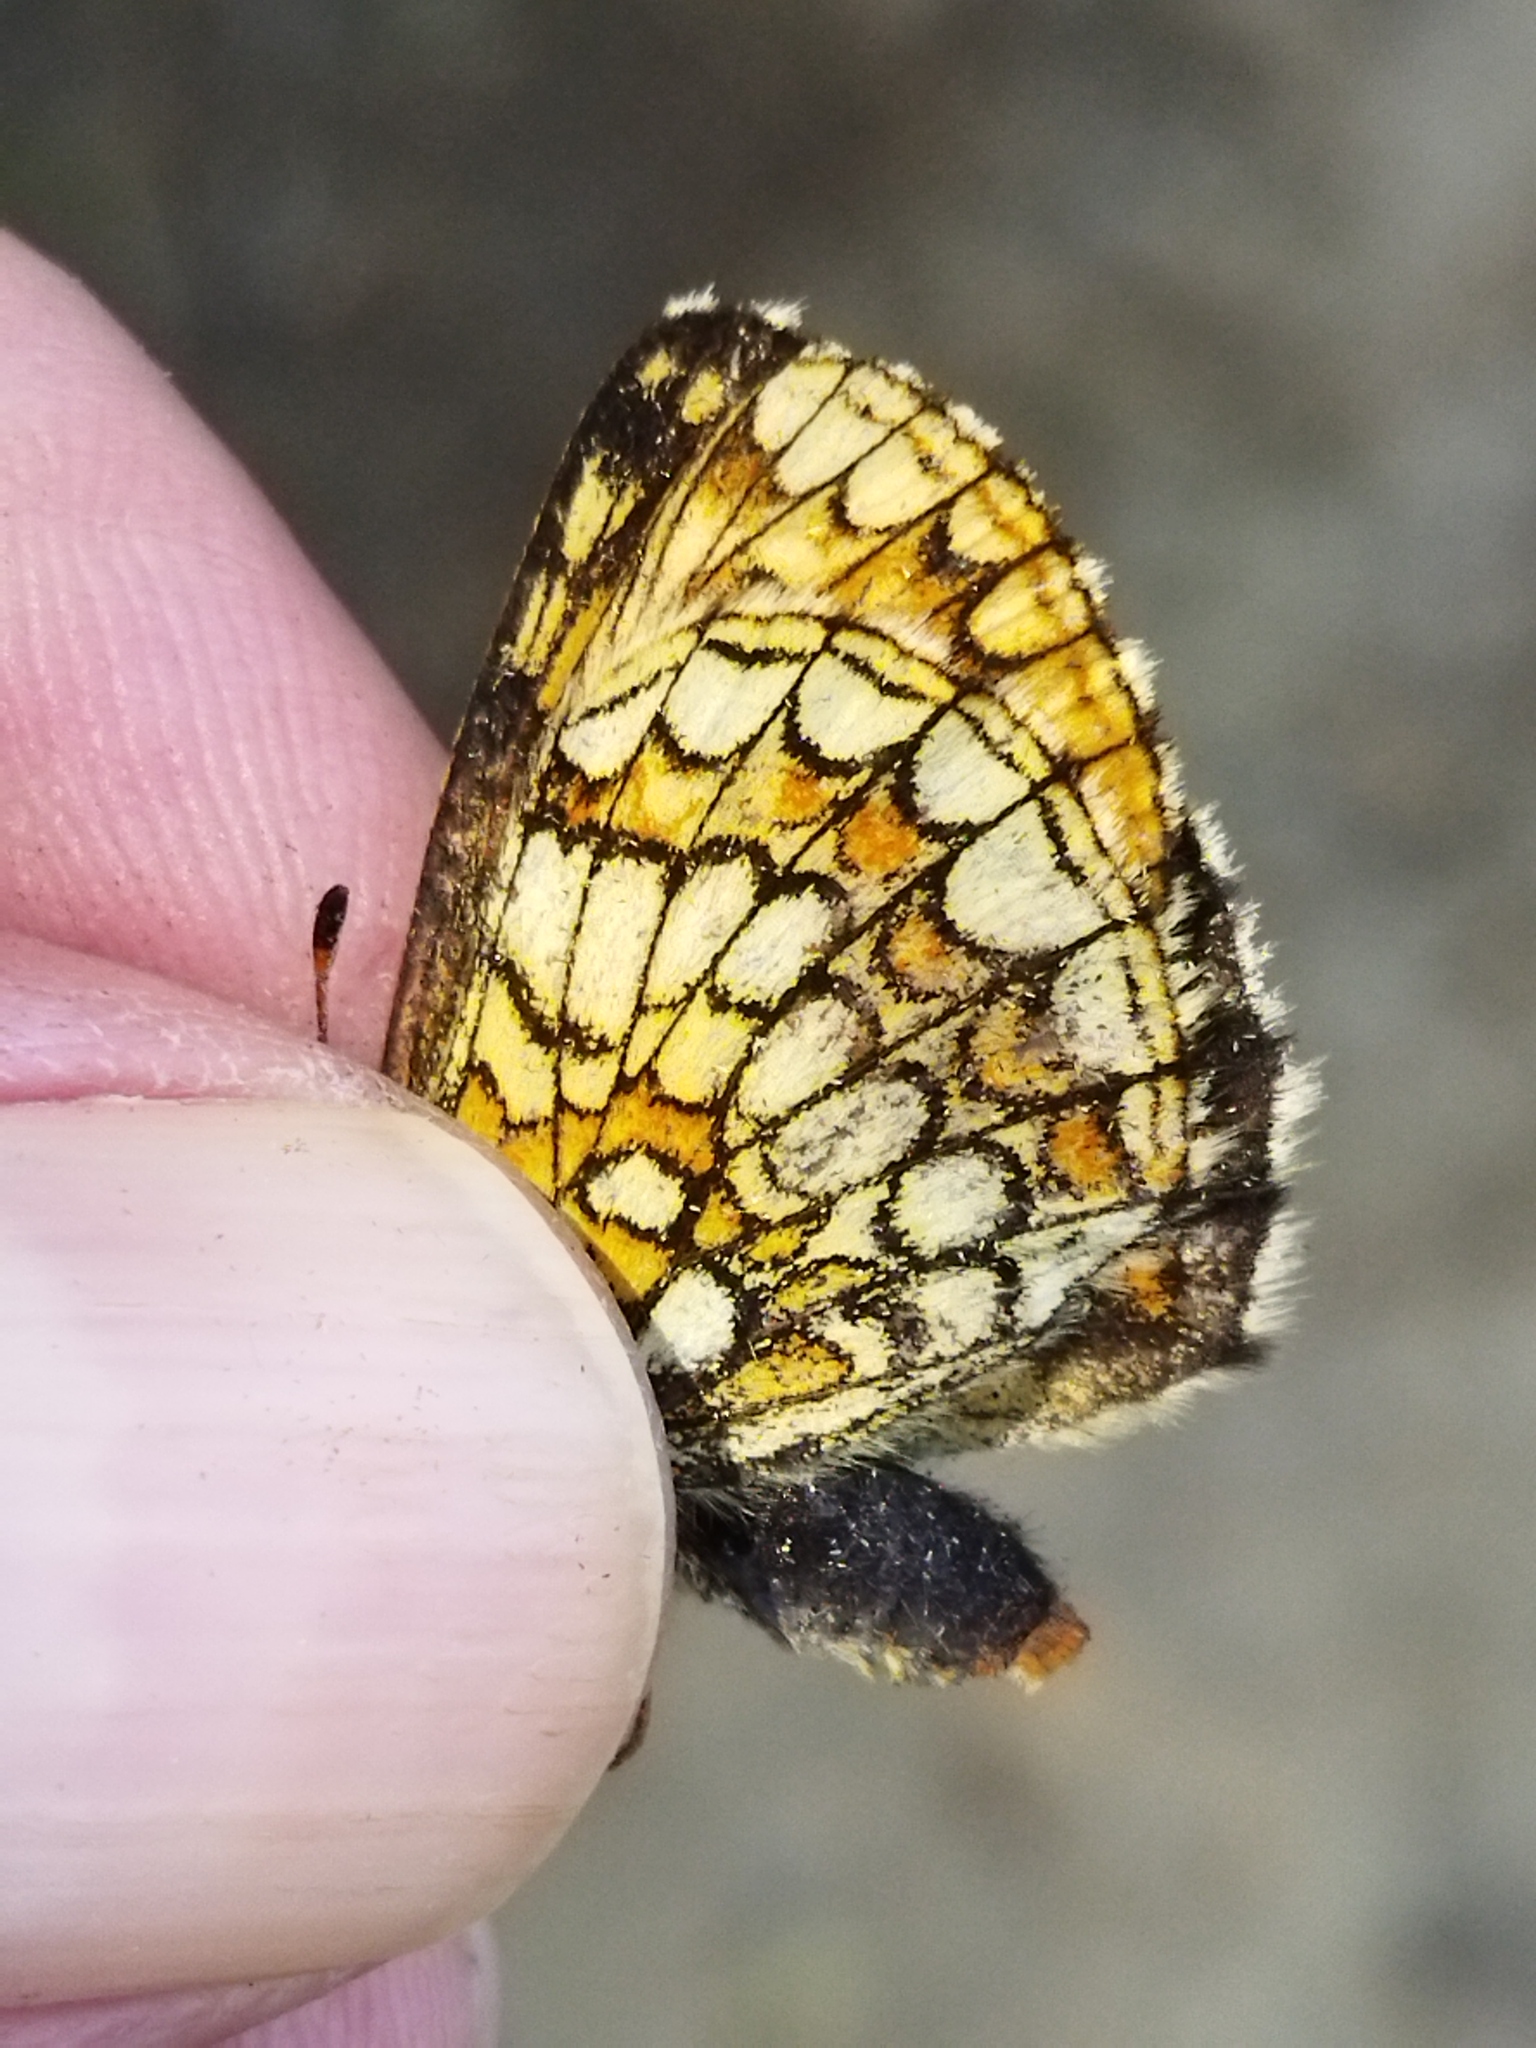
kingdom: Animalia
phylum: Arthropoda
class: Insecta
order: Lepidoptera
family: Nymphalidae
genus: Melitaea
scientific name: Melitaea
